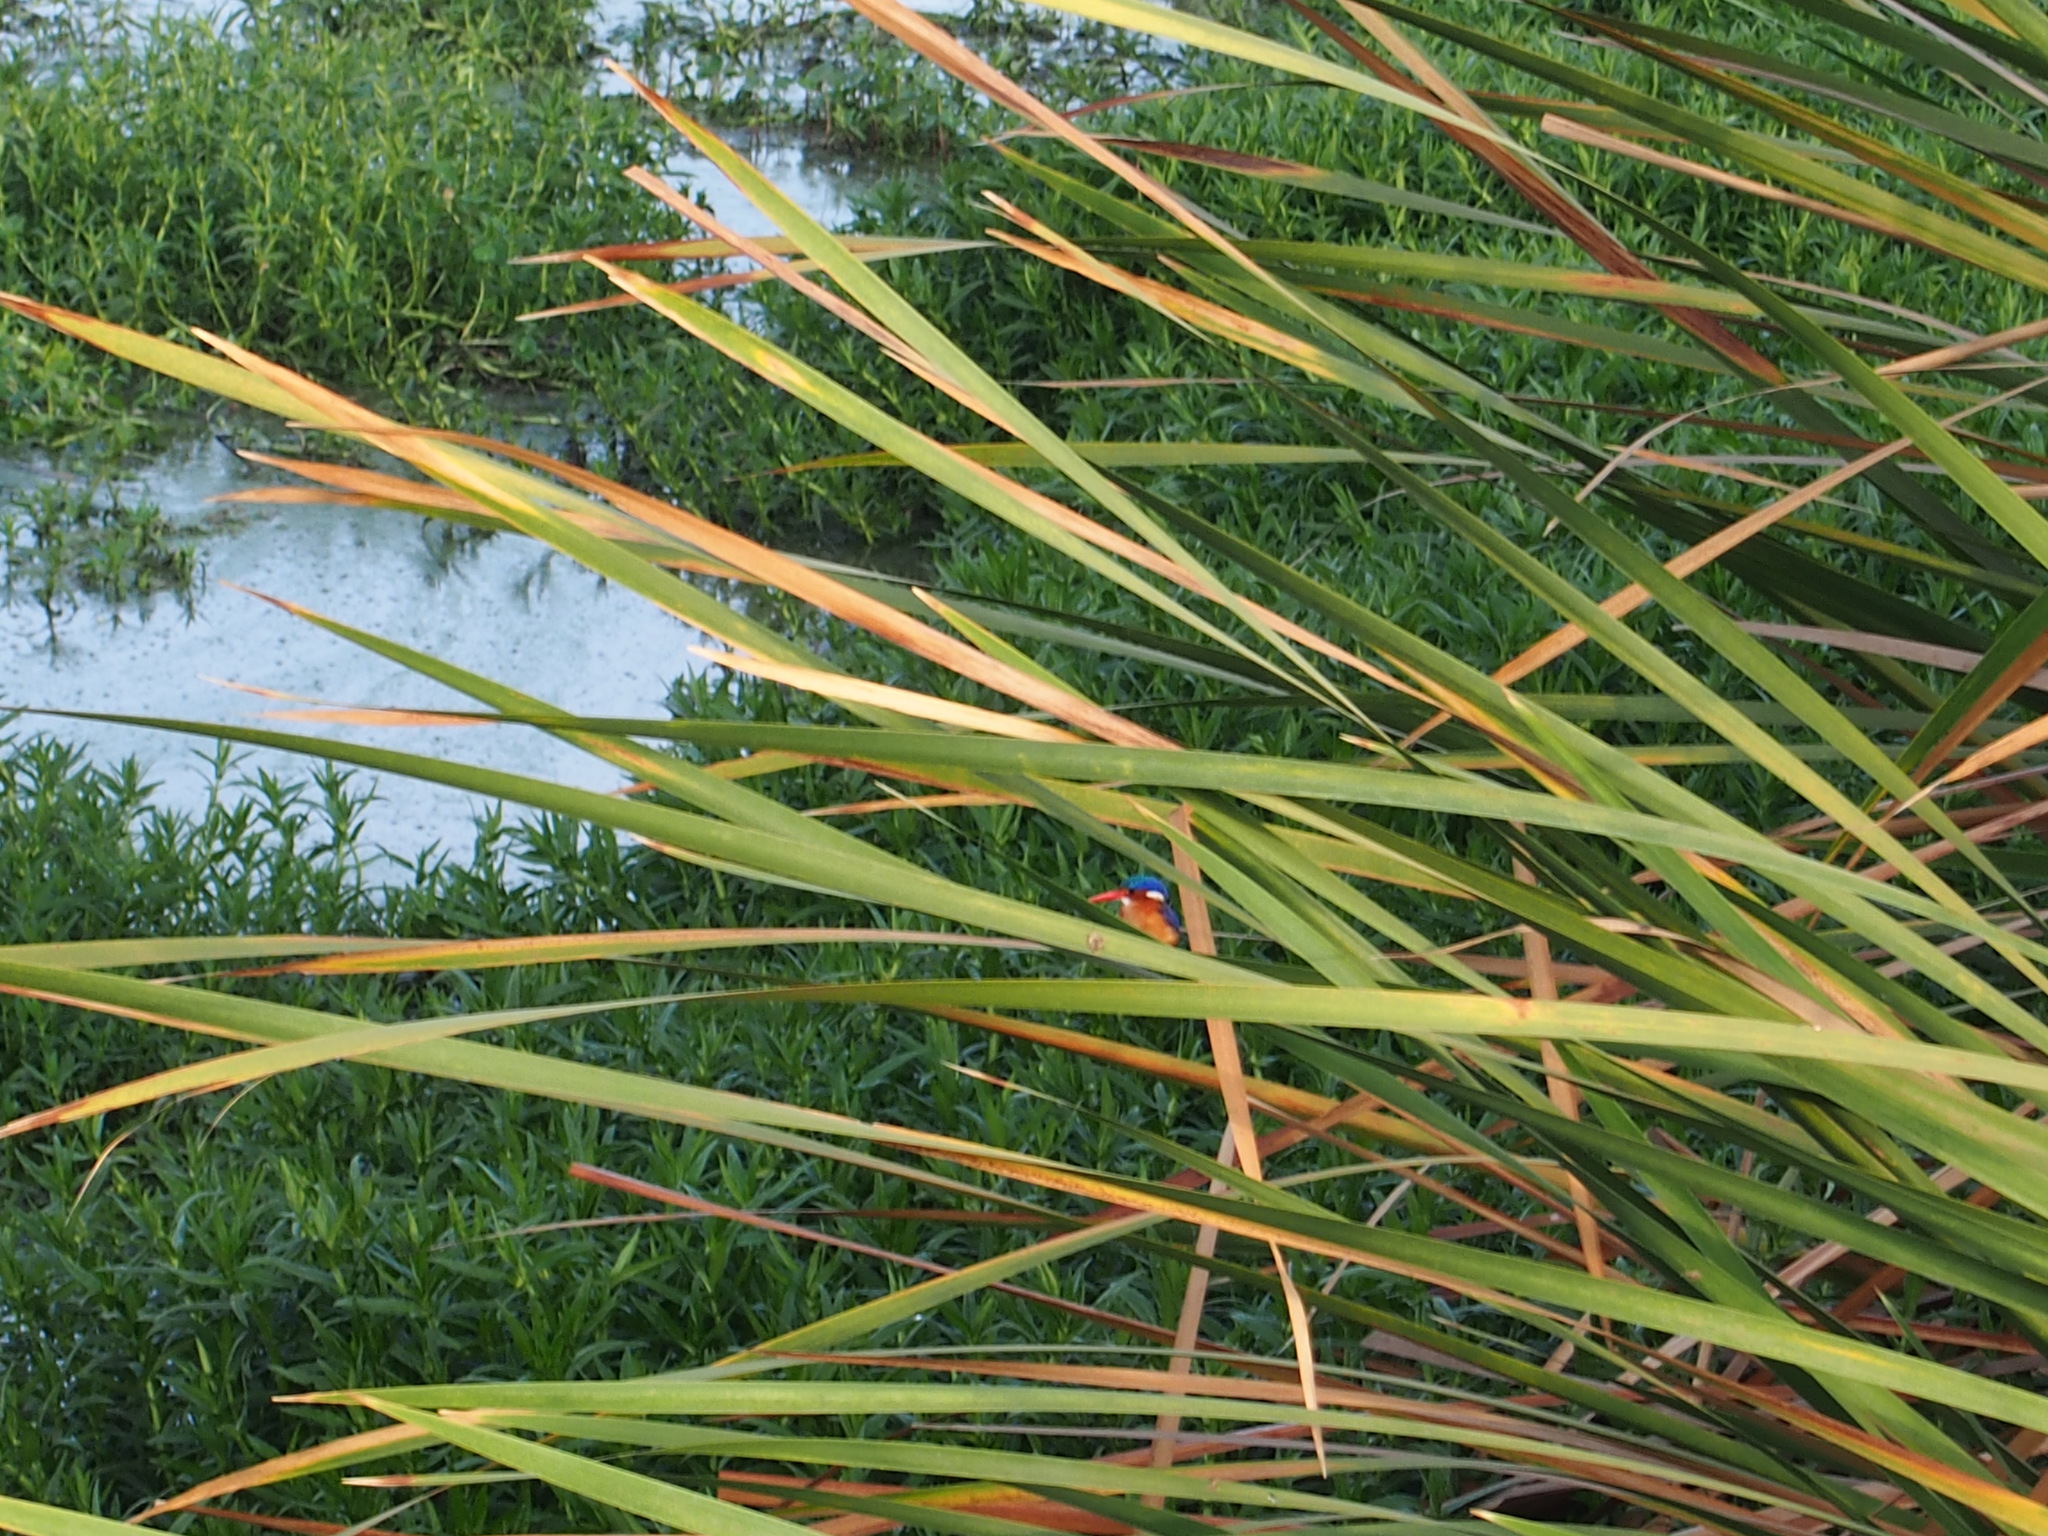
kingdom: Animalia
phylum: Chordata
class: Aves
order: Coraciiformes
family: Alcedinidae
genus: Corythornis
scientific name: Corythornis cristatus
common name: Malachite kingfisher
